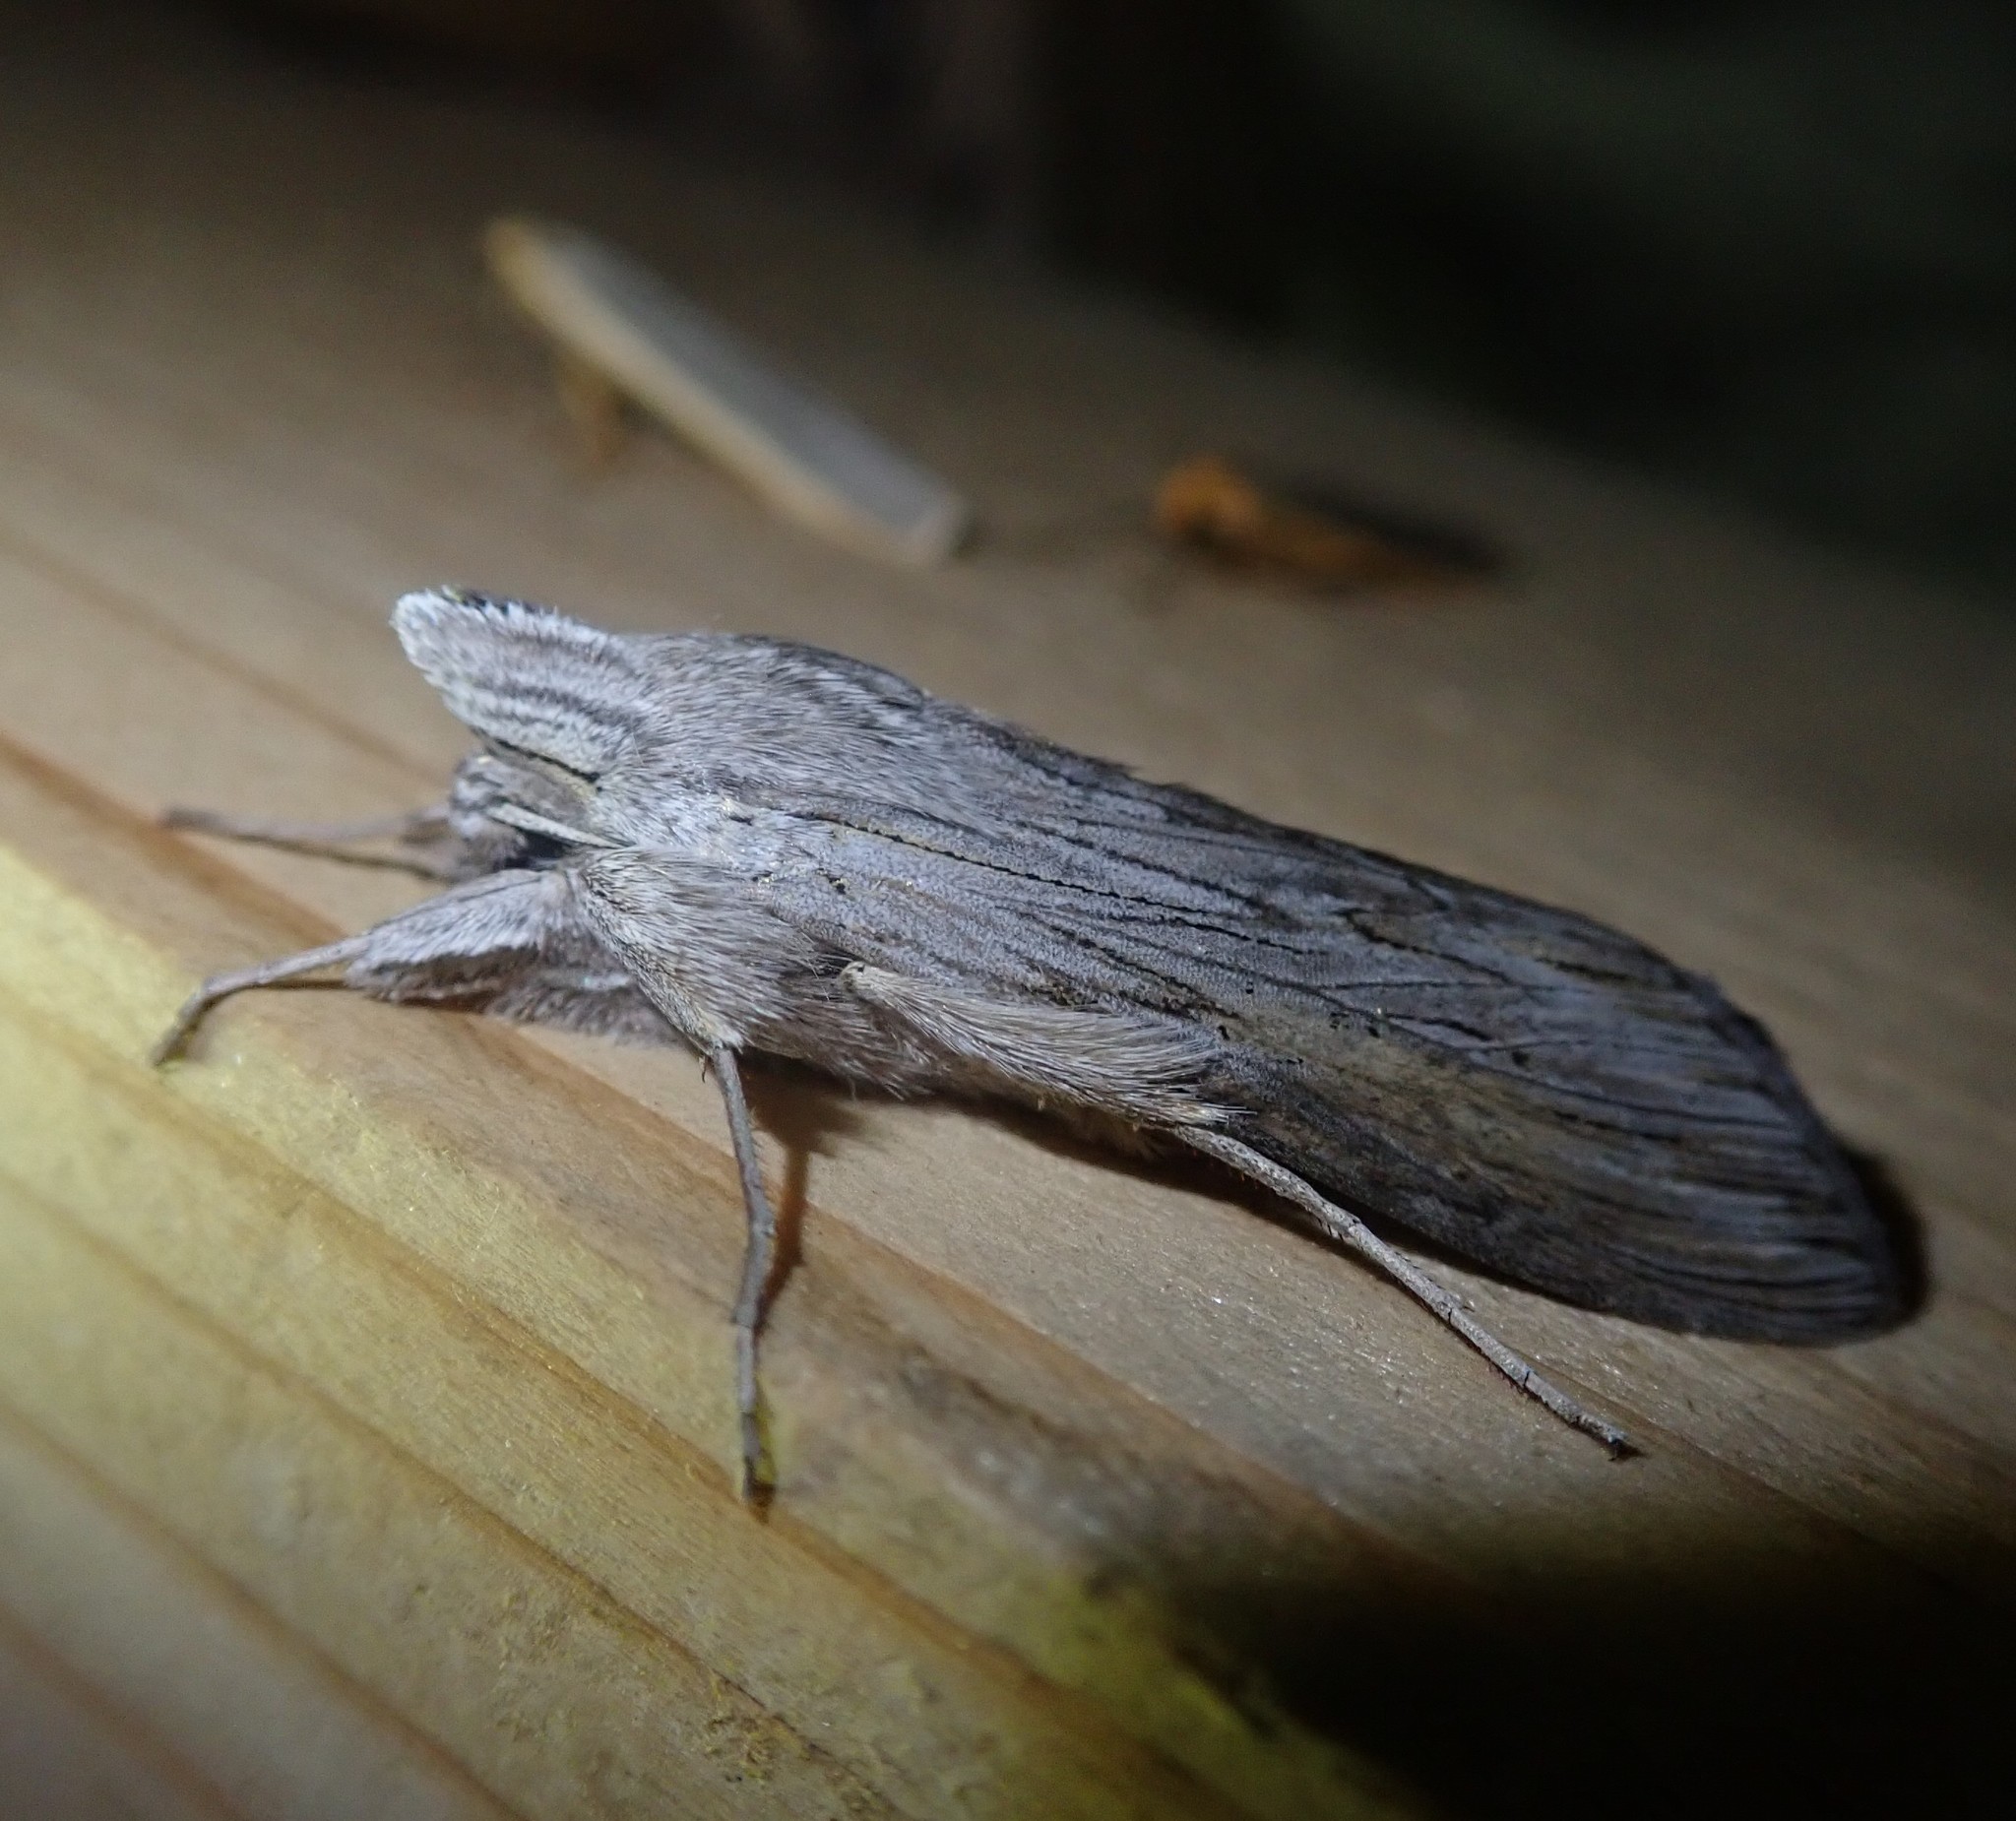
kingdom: Animalia
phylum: Arthropoda
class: Insecta
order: Lepidoptera
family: Noctuidae
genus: Cucullia
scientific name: Cucullia umbratica
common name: Shark
